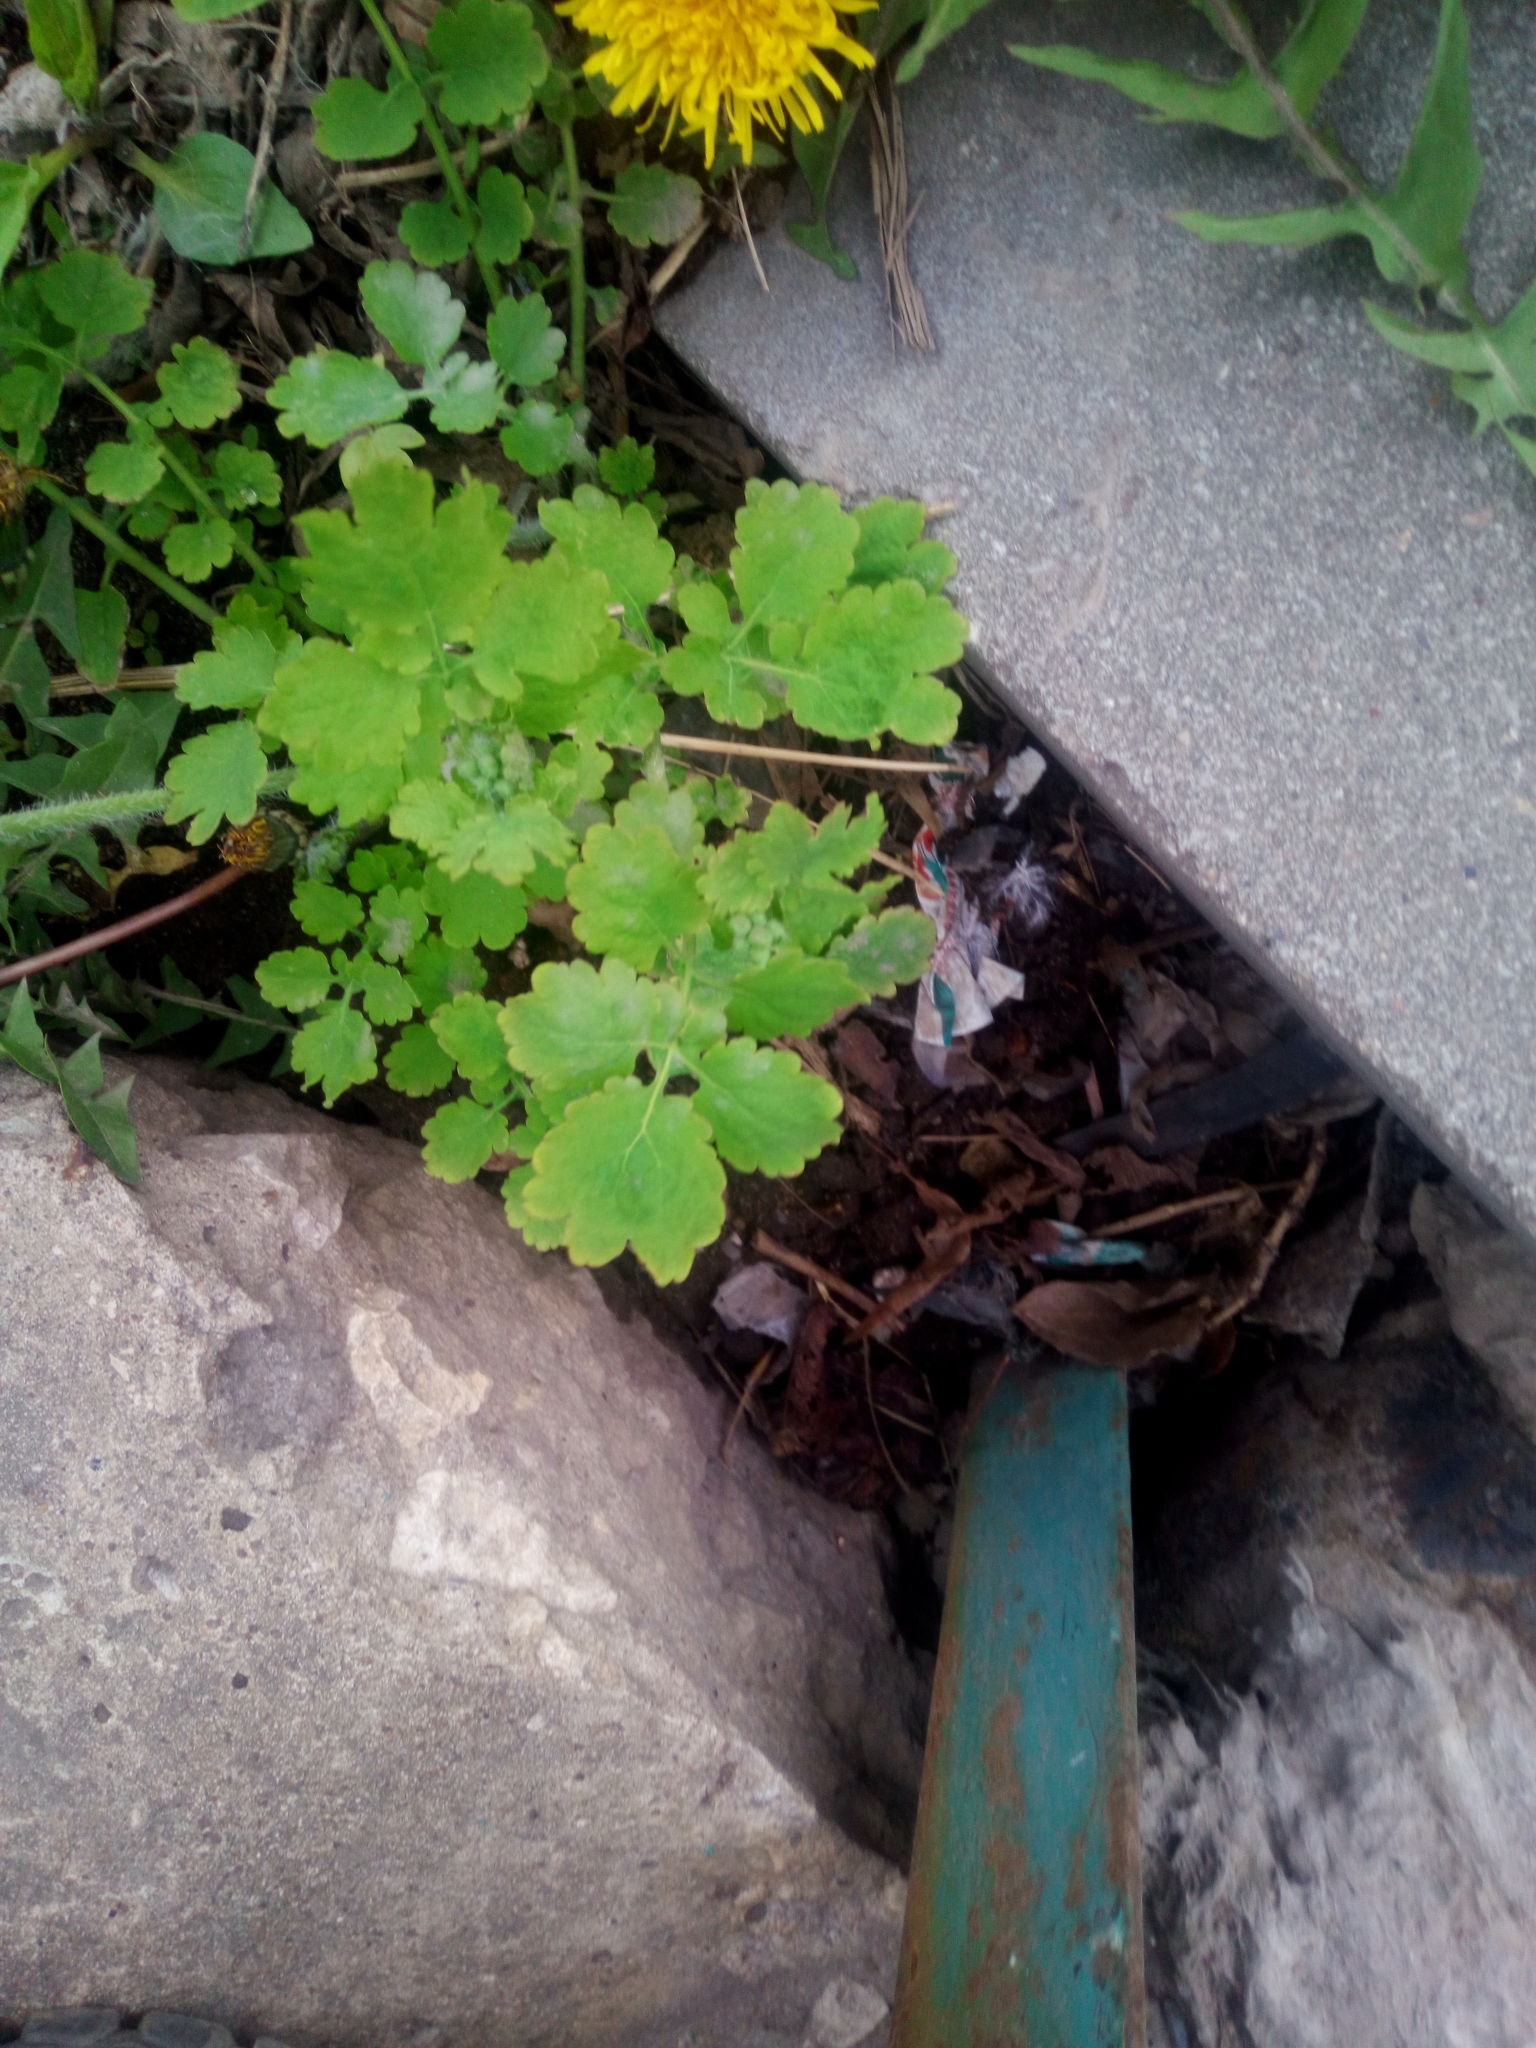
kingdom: Plantae
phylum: Tracheophyta
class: Magnoliopsida
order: Ranunculales
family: Papaveraceae
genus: Chelidonium
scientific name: Chelidonium majus
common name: Greater celandine
